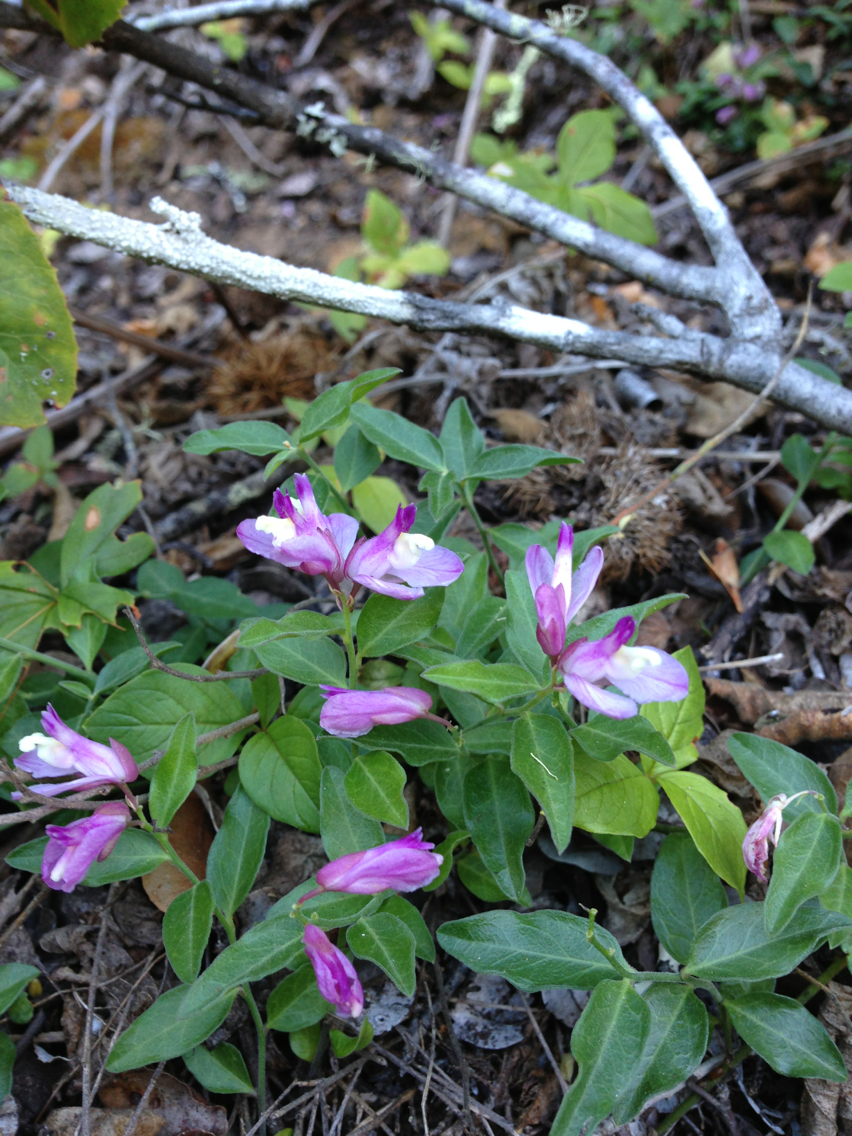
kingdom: Plantae
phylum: Tracheophyta
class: Magnoliopsida
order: Fabales
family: Polygalaceae
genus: Rhinotropis
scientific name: Rhinotropis californica
